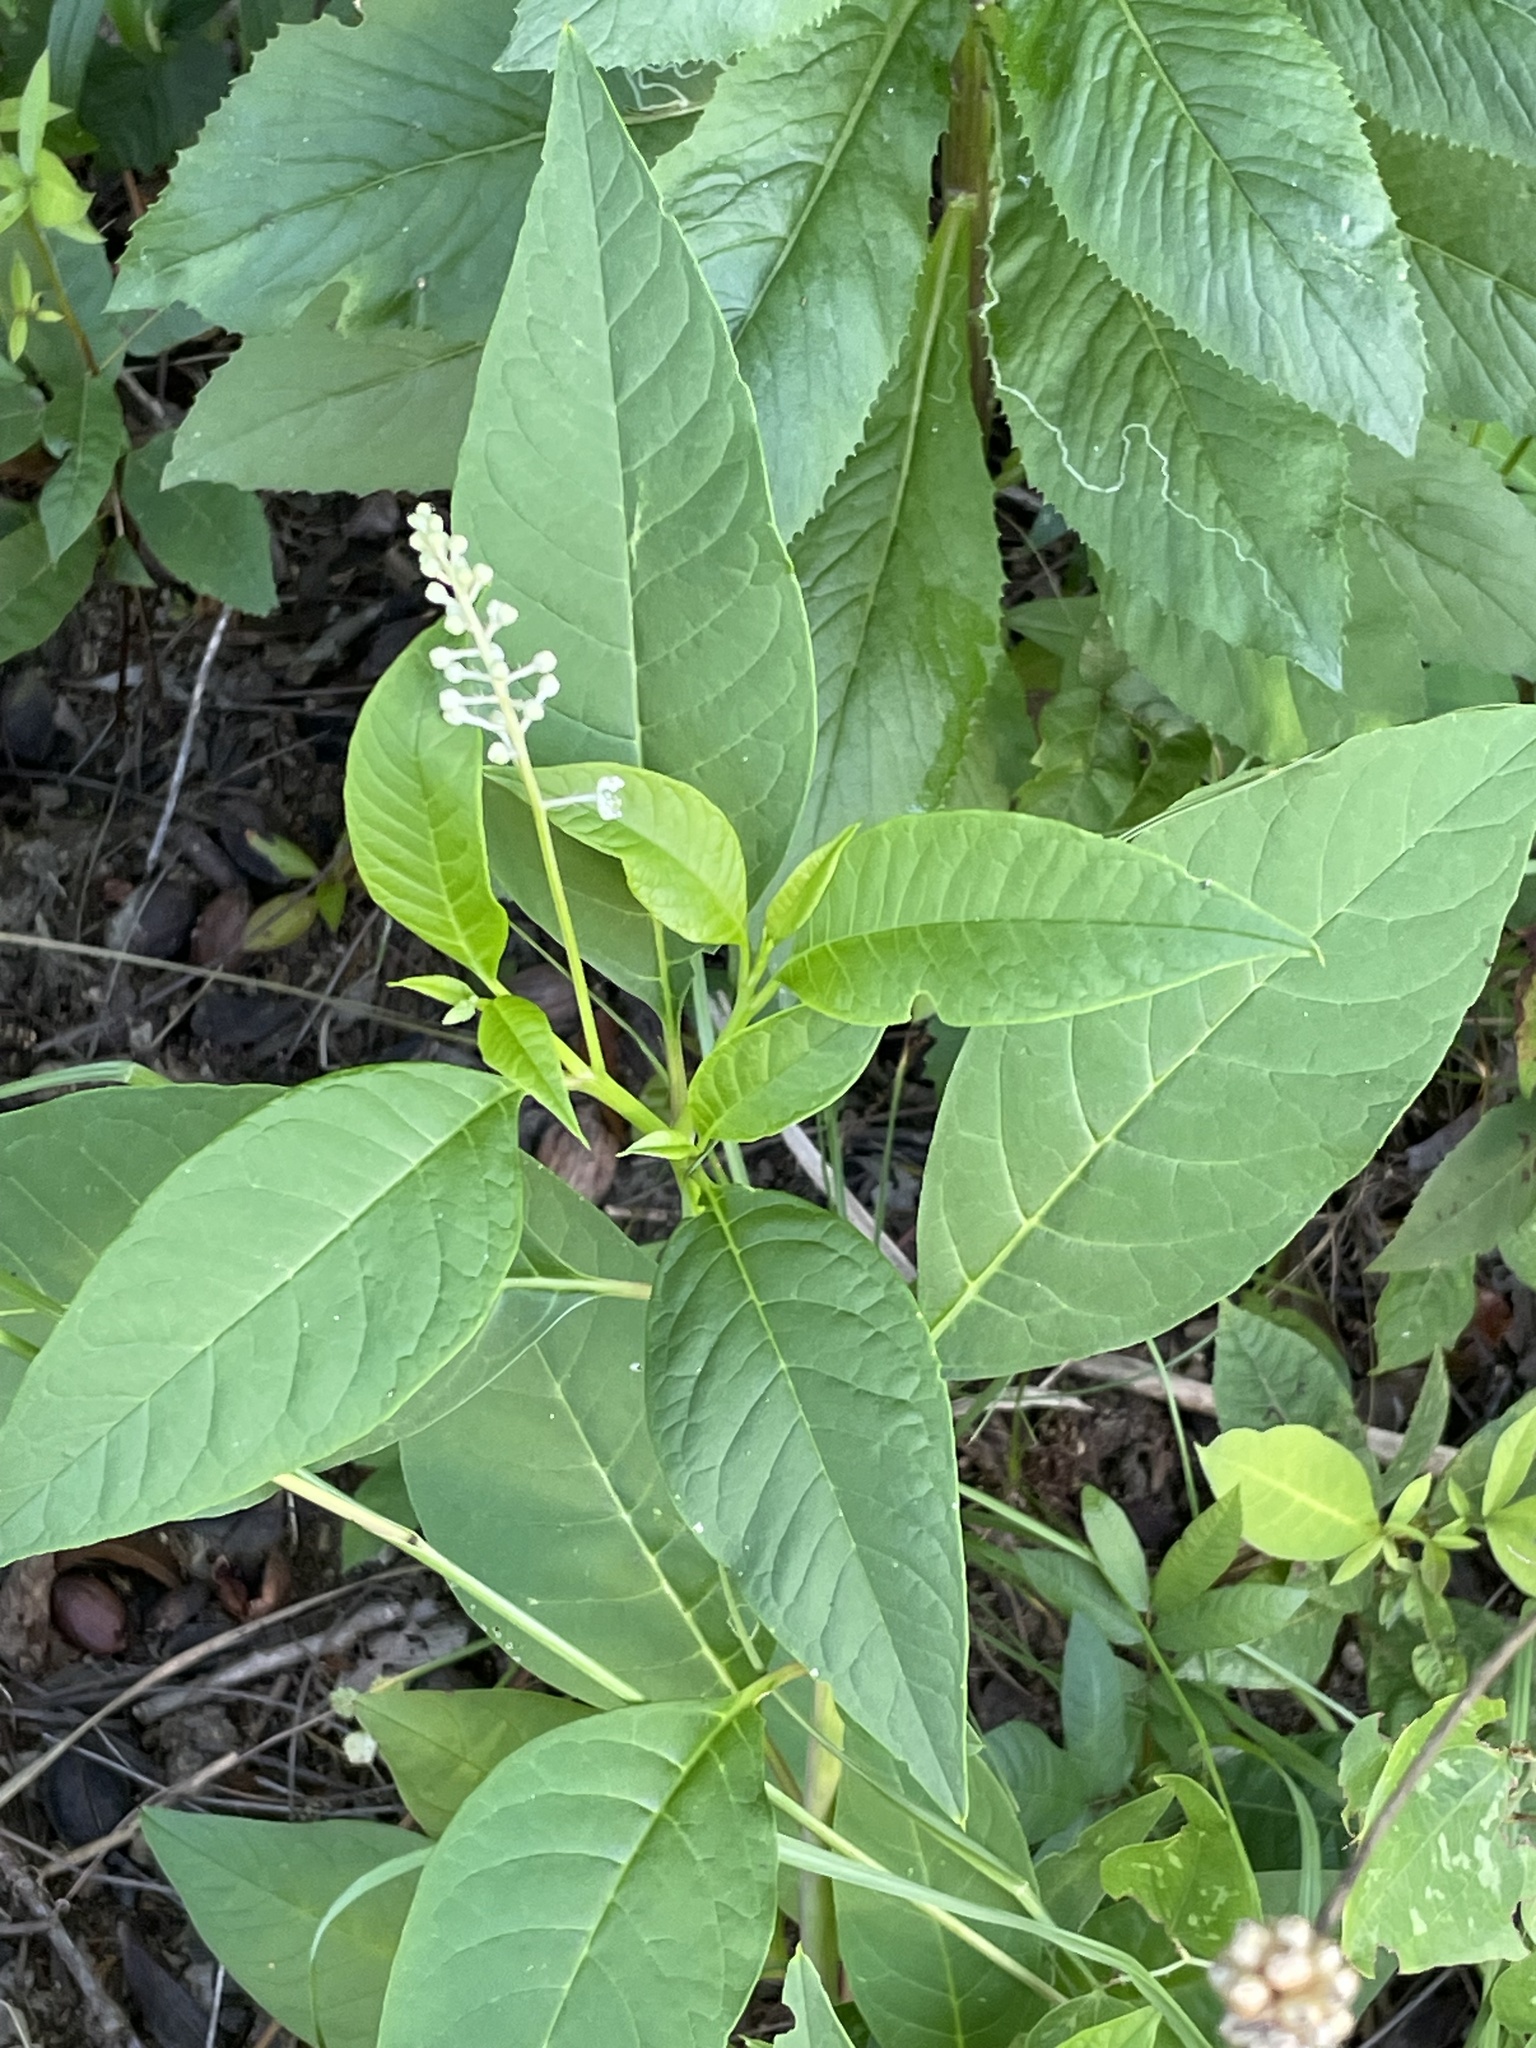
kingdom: Plantae
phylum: Tracheophyta
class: Magnoliopsida
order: Caryophyllales
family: Phytolaccaceae
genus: Phytolacca
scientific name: Phytolacca americana
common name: American pokeweed
